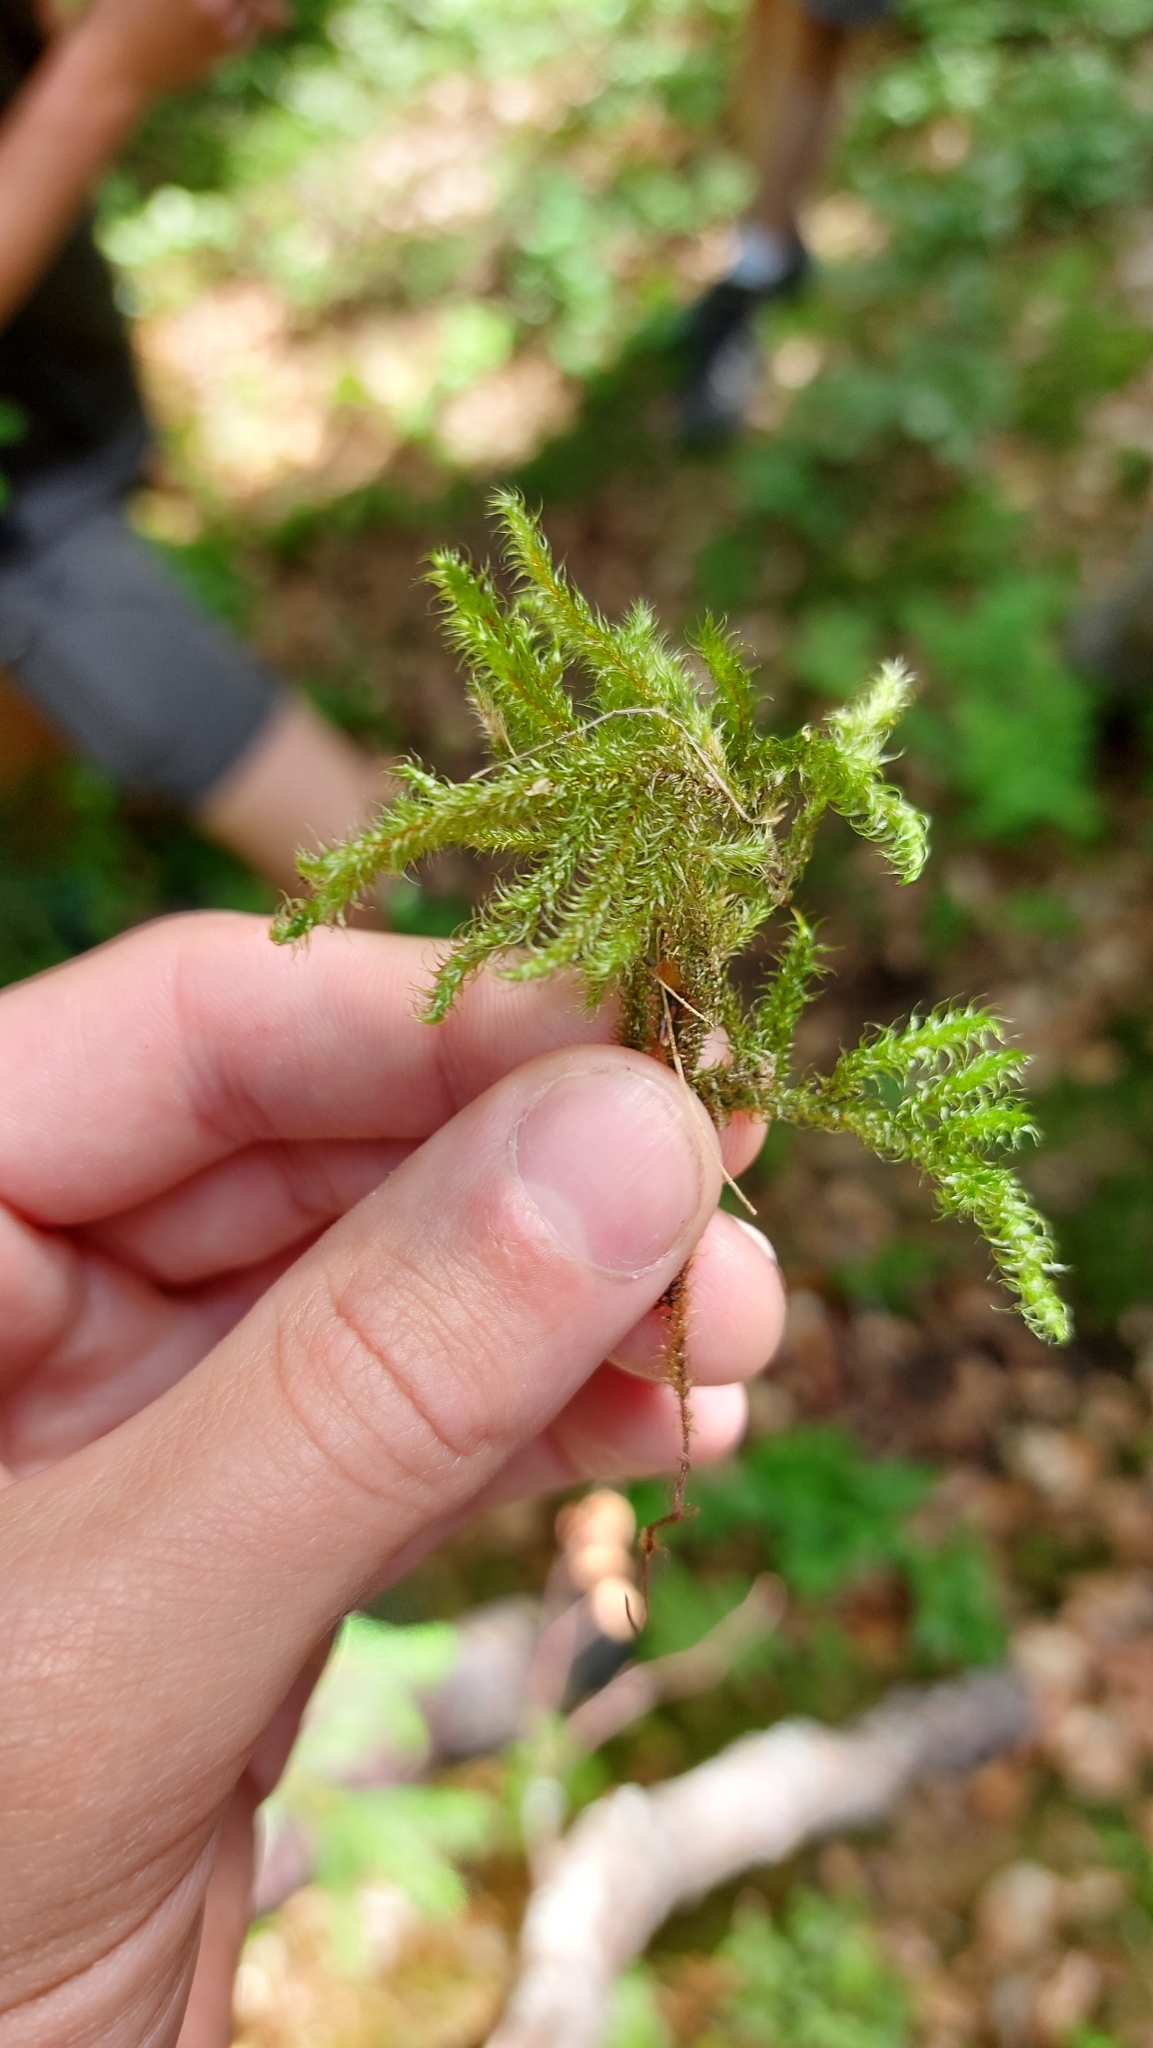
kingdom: Plantae
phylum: Bryophyta
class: Bryopsida
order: Hypnales
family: Hylocomiaceae
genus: Rhytidiadelphus
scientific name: Rhytidiadelphus loreus
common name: Lanky moss
